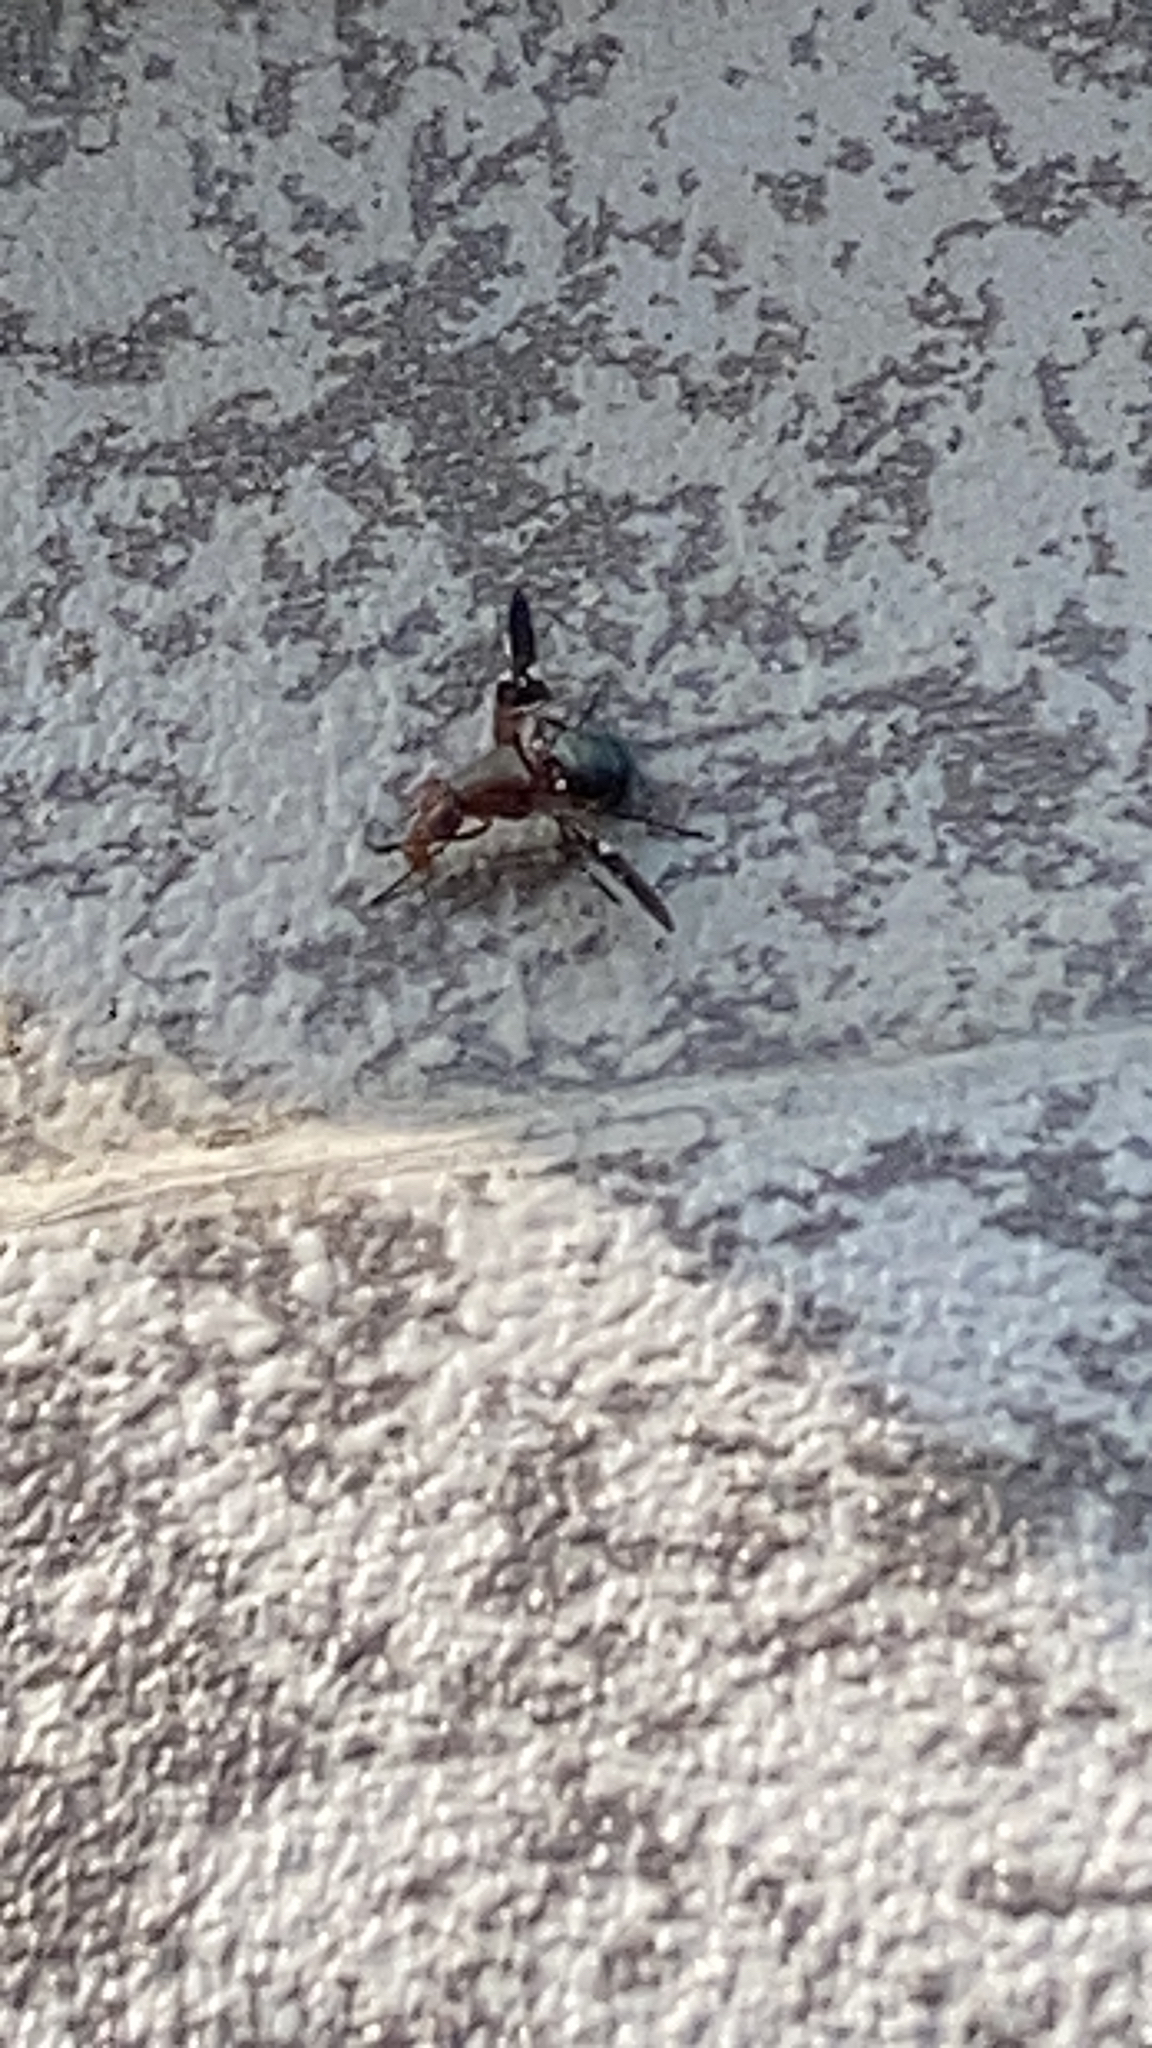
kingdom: Animalia
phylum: Arthropoda
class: Insecta
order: Diptera
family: Ulidiidae
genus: Delphinia
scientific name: Delphinia picta
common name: Common picture-winged fly
